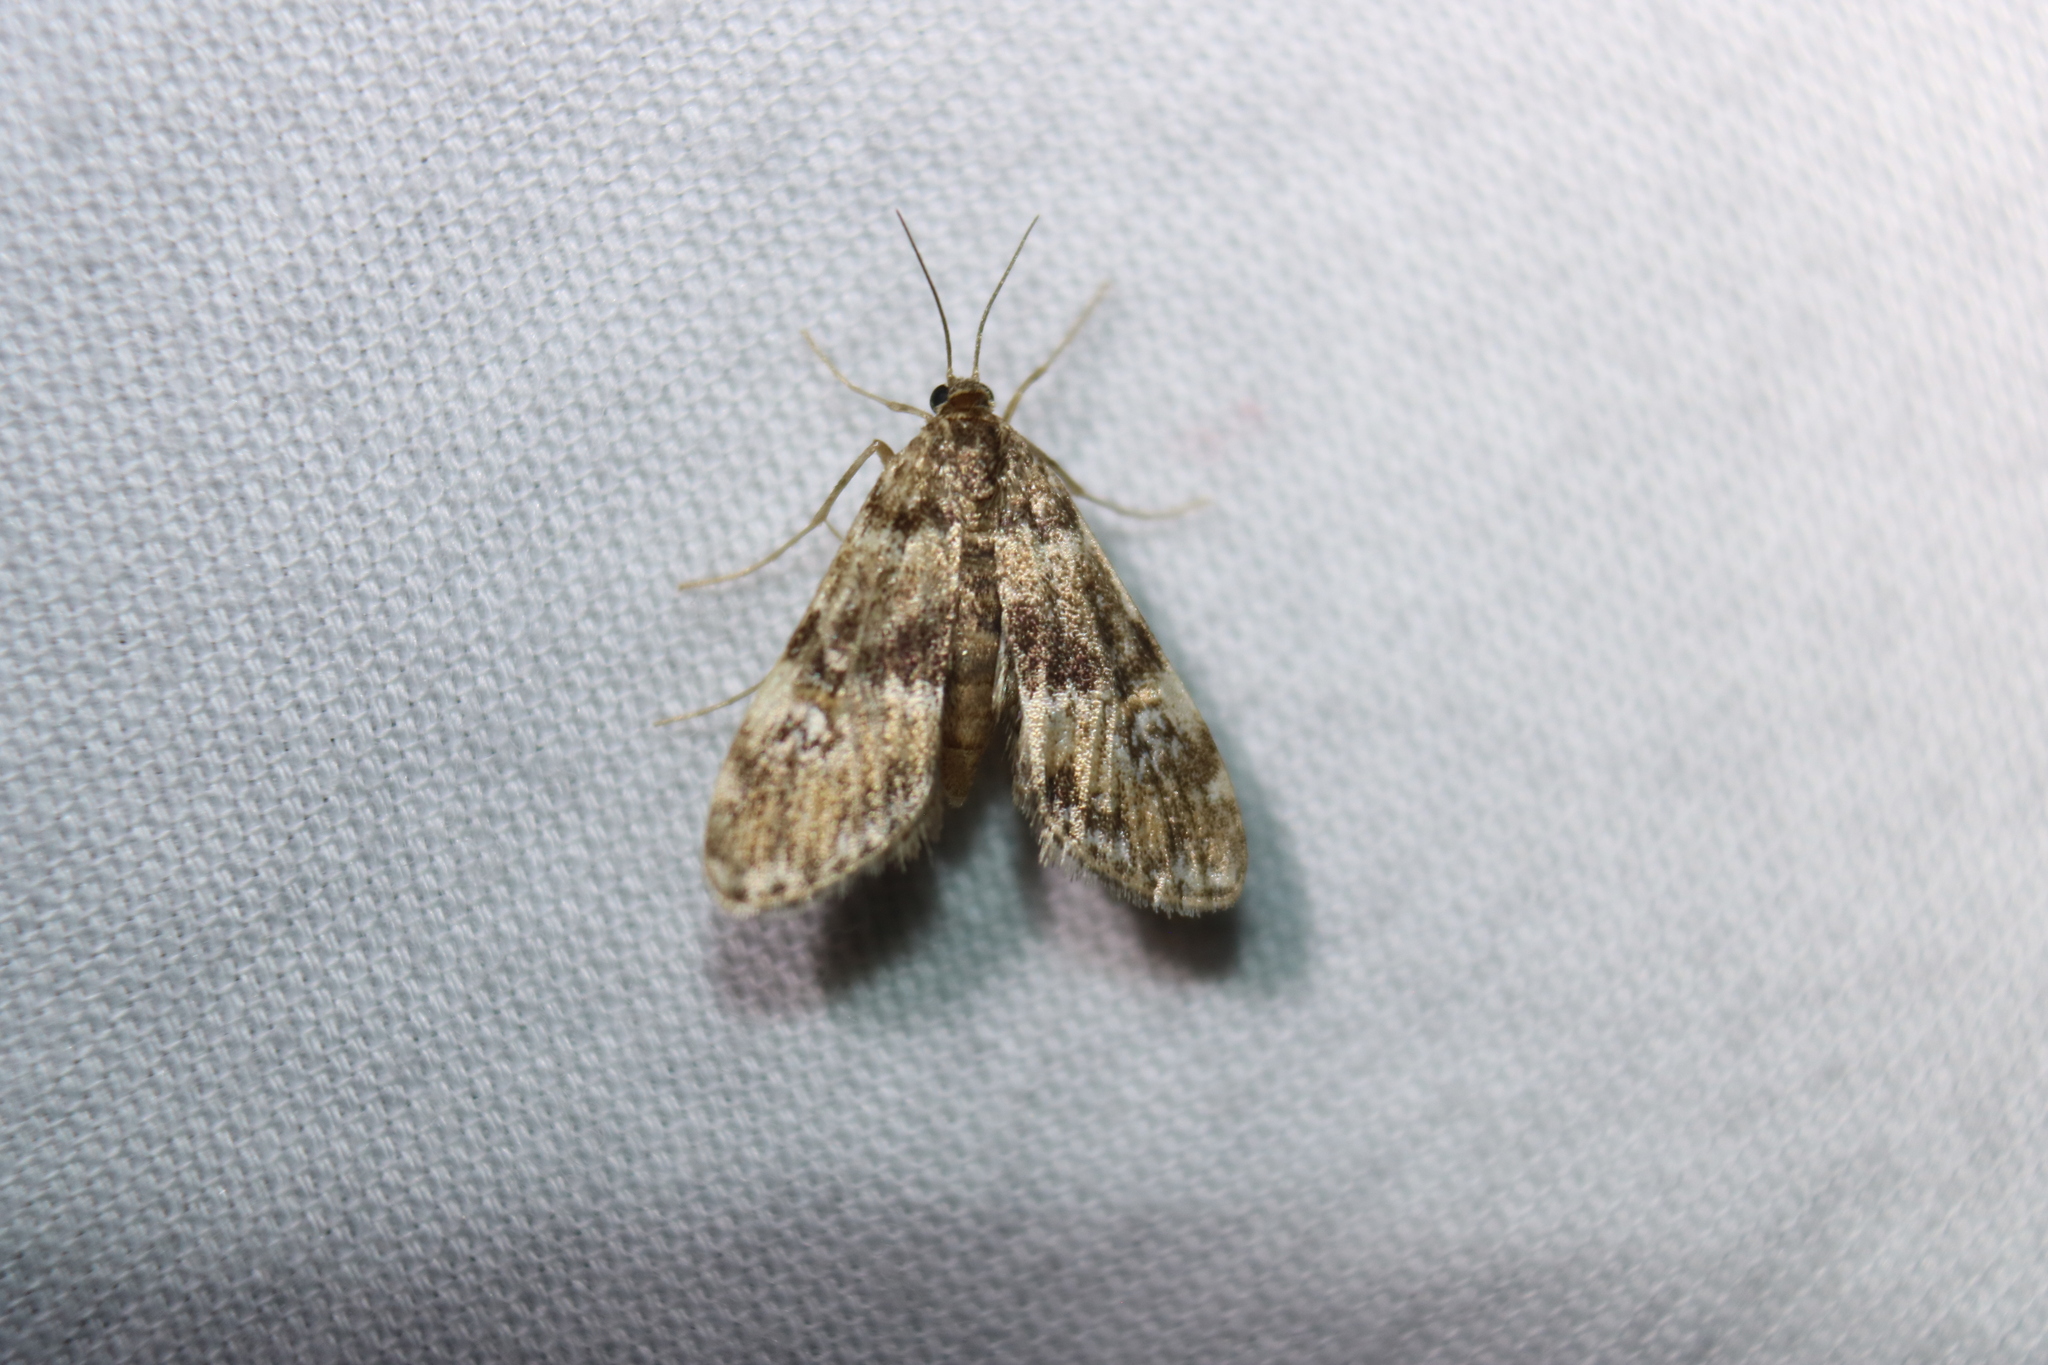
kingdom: Animalia
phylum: Arthropoda
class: Insecta
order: Lepidoptera
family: Crambidae
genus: Elophila
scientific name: Elophila obliteralis
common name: Waterlily leafcutter moth
